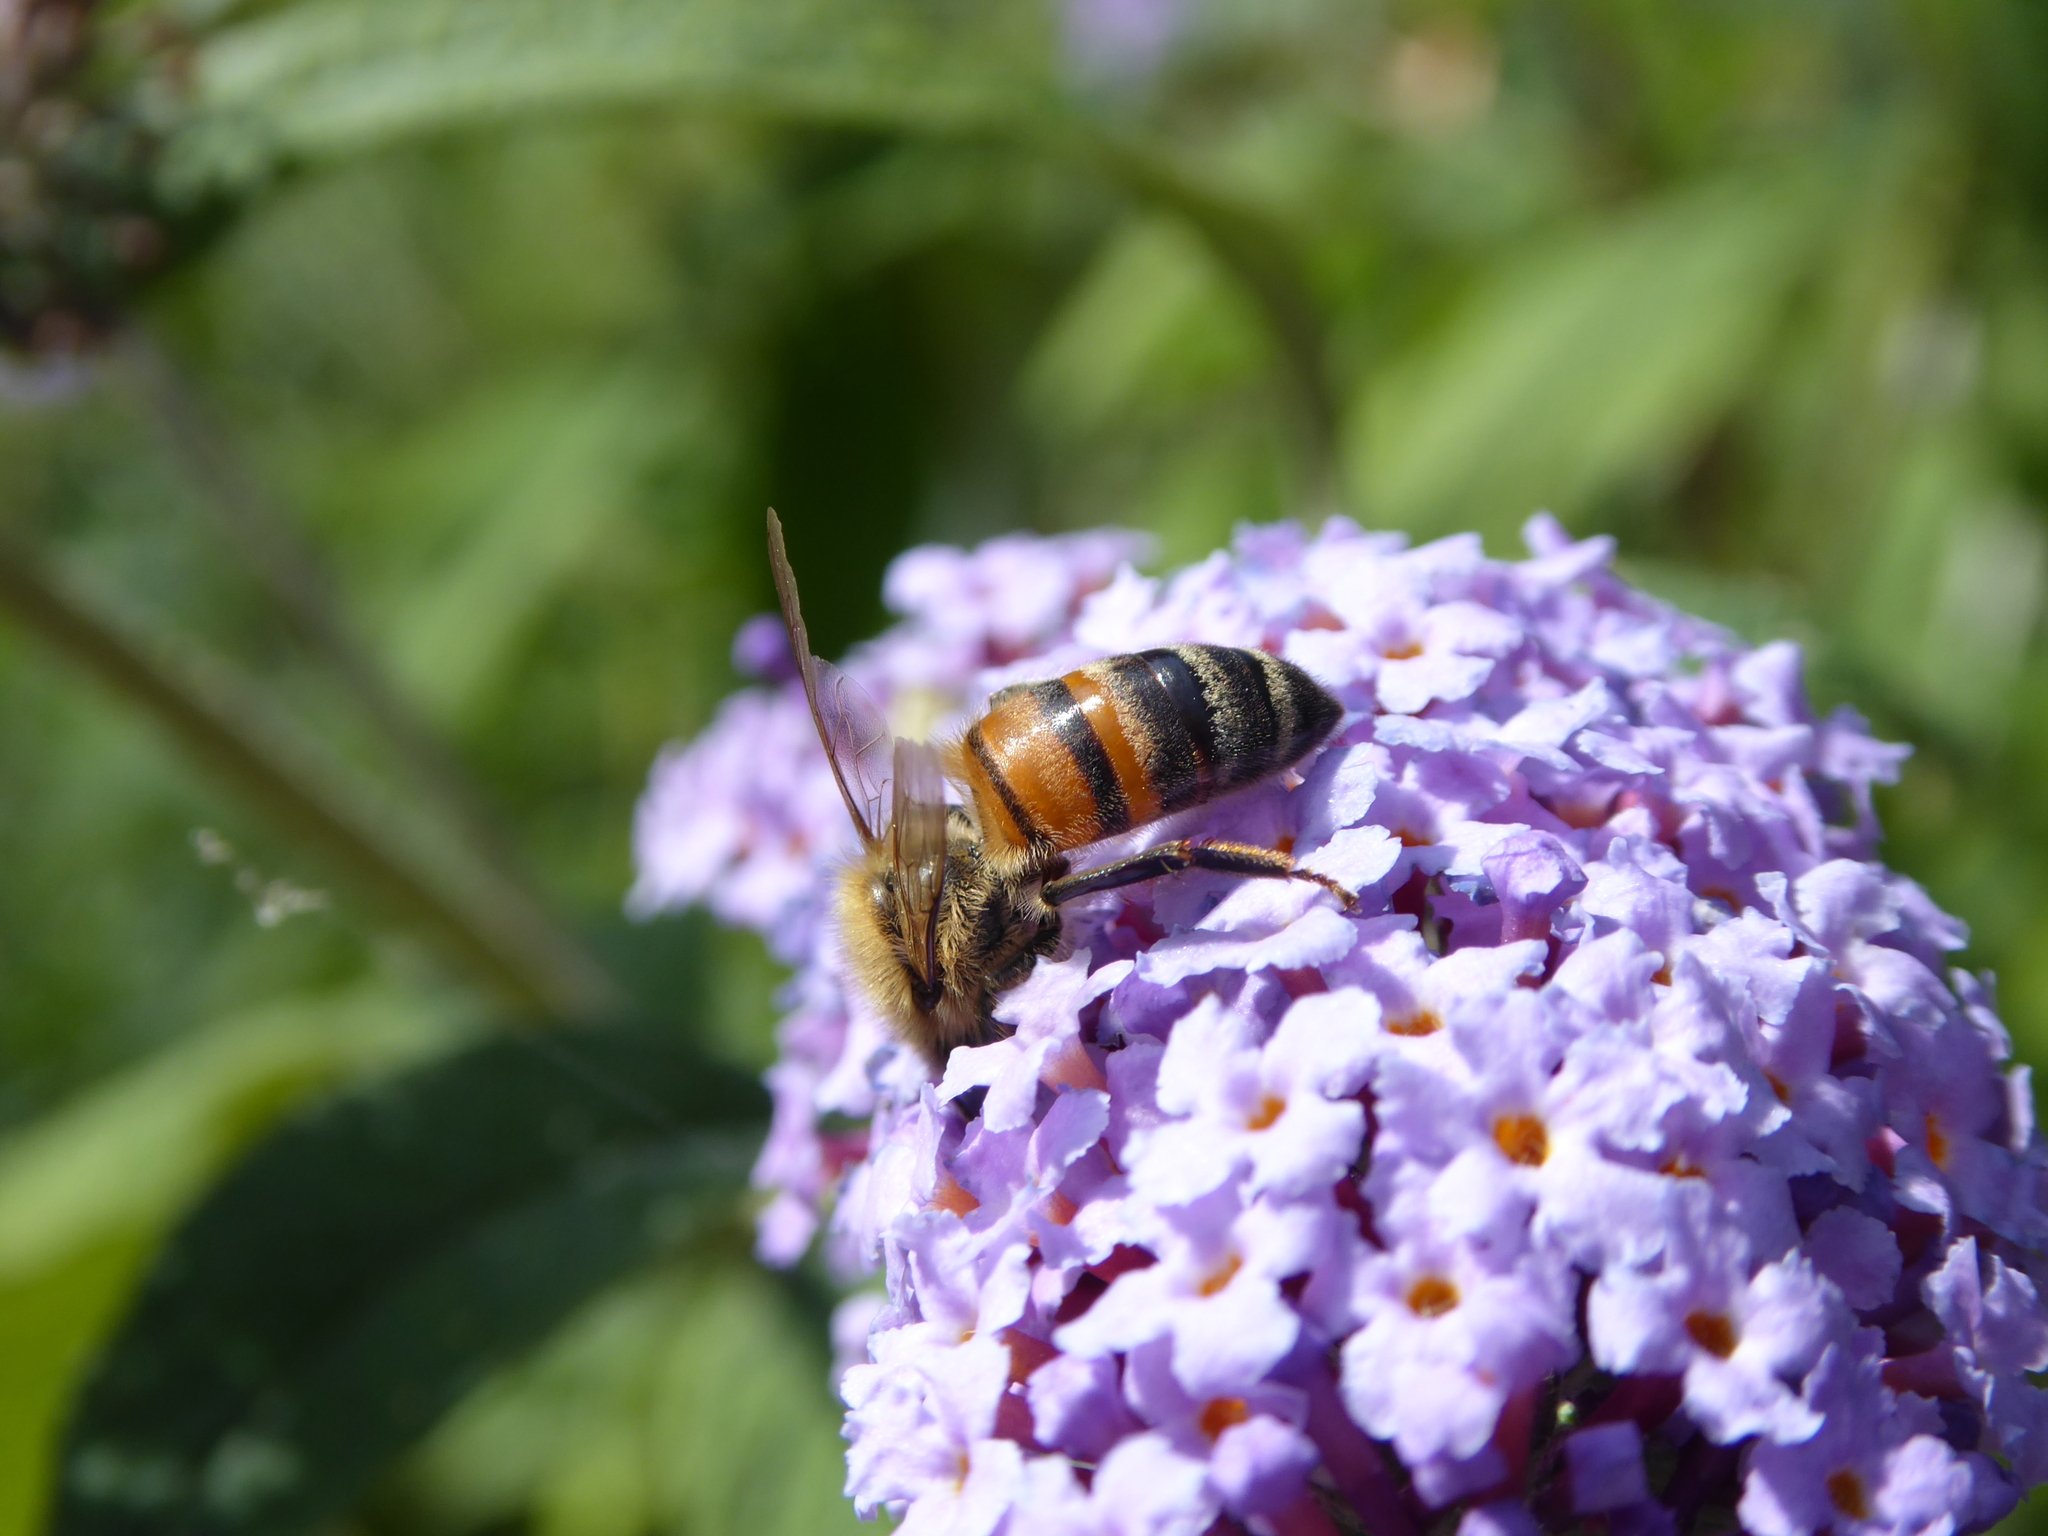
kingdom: Animalia
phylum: Arthropoda
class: Insecta
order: Hymenoptera
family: Apidae
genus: Apis
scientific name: Apis mellifera
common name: Honey bee
